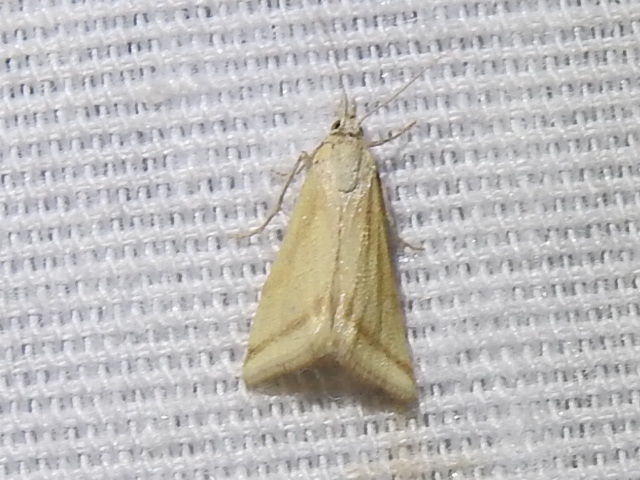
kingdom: Animalia
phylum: Arthropoda
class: Insecta
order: Lepidoptera
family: Crambidae
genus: Microtheoris
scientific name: Microtheoris vibicalis
